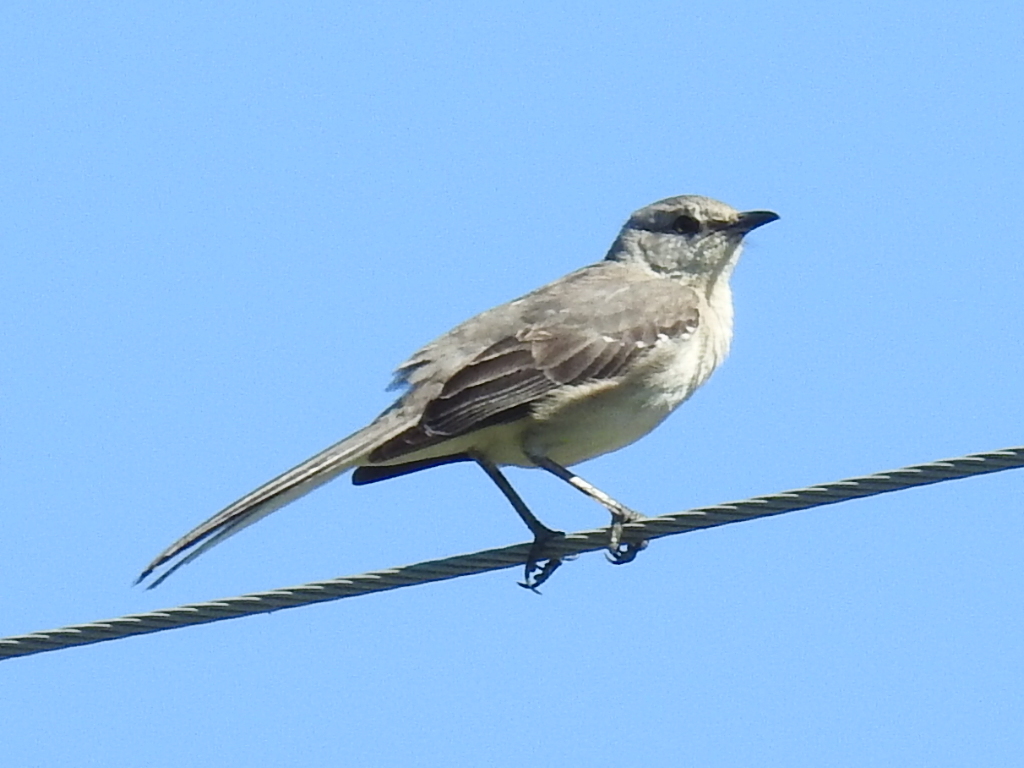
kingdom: Animalia
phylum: Chordata
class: Aves
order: Passeriformes
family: Mimidae
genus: Mimus
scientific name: Mimus polyglottos
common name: Northern mockingbird
